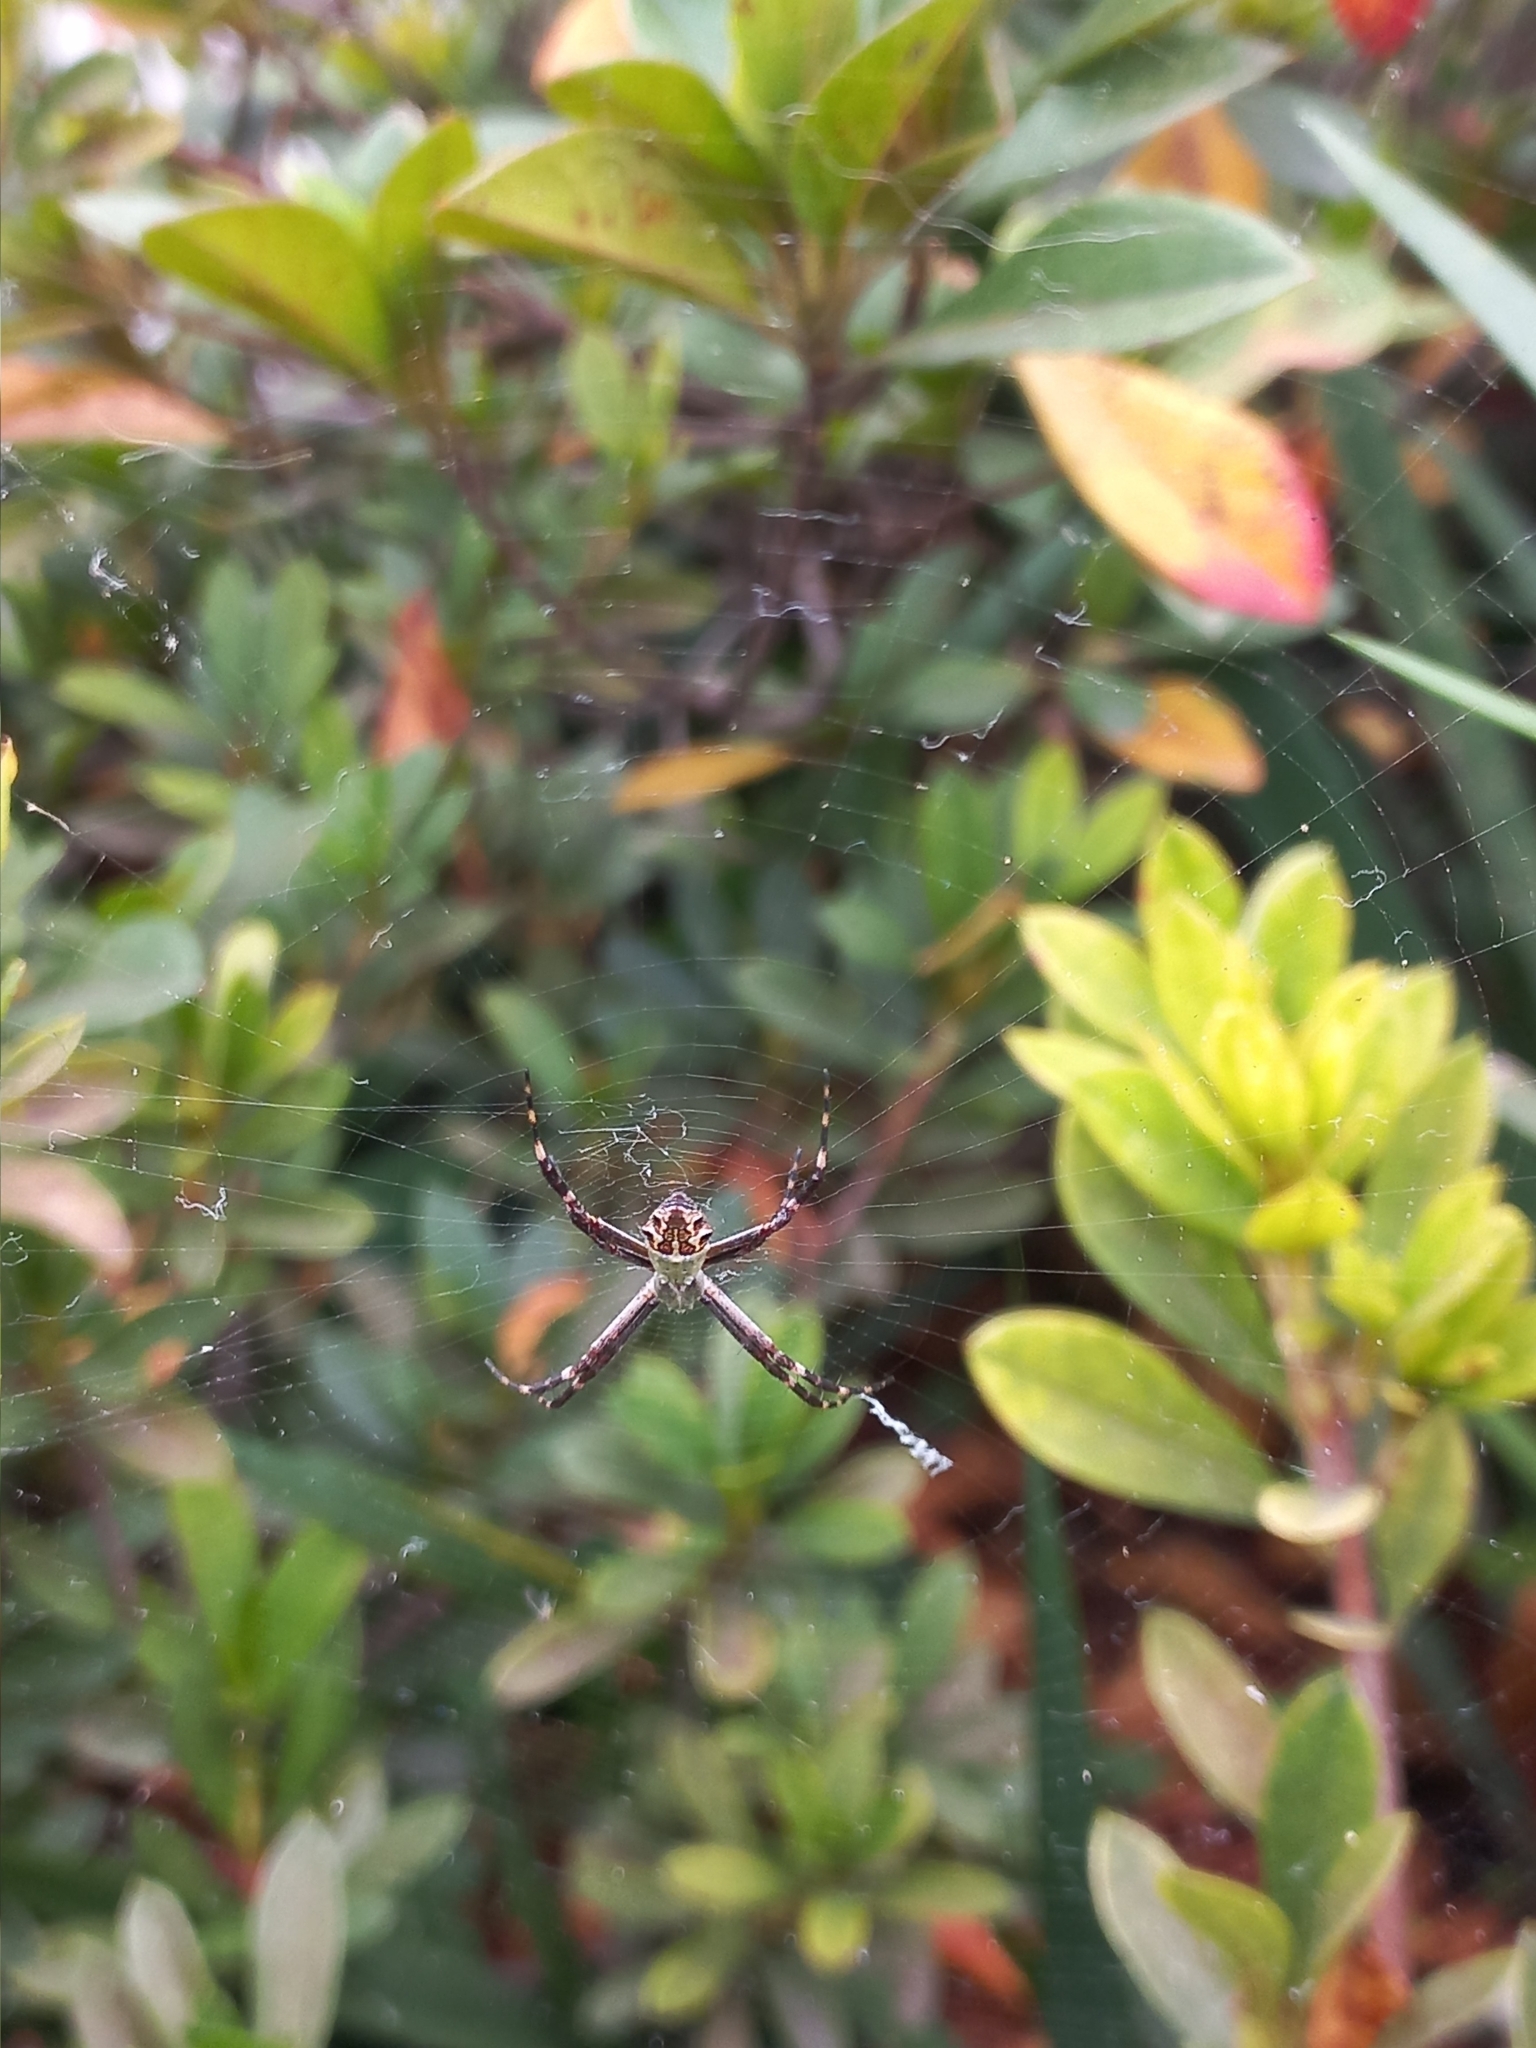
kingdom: Animalia
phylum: Arthropoda
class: Arachnida
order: Araneae
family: Araneidae
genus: Argiope
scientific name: Argiope argentata
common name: Orb weavers
